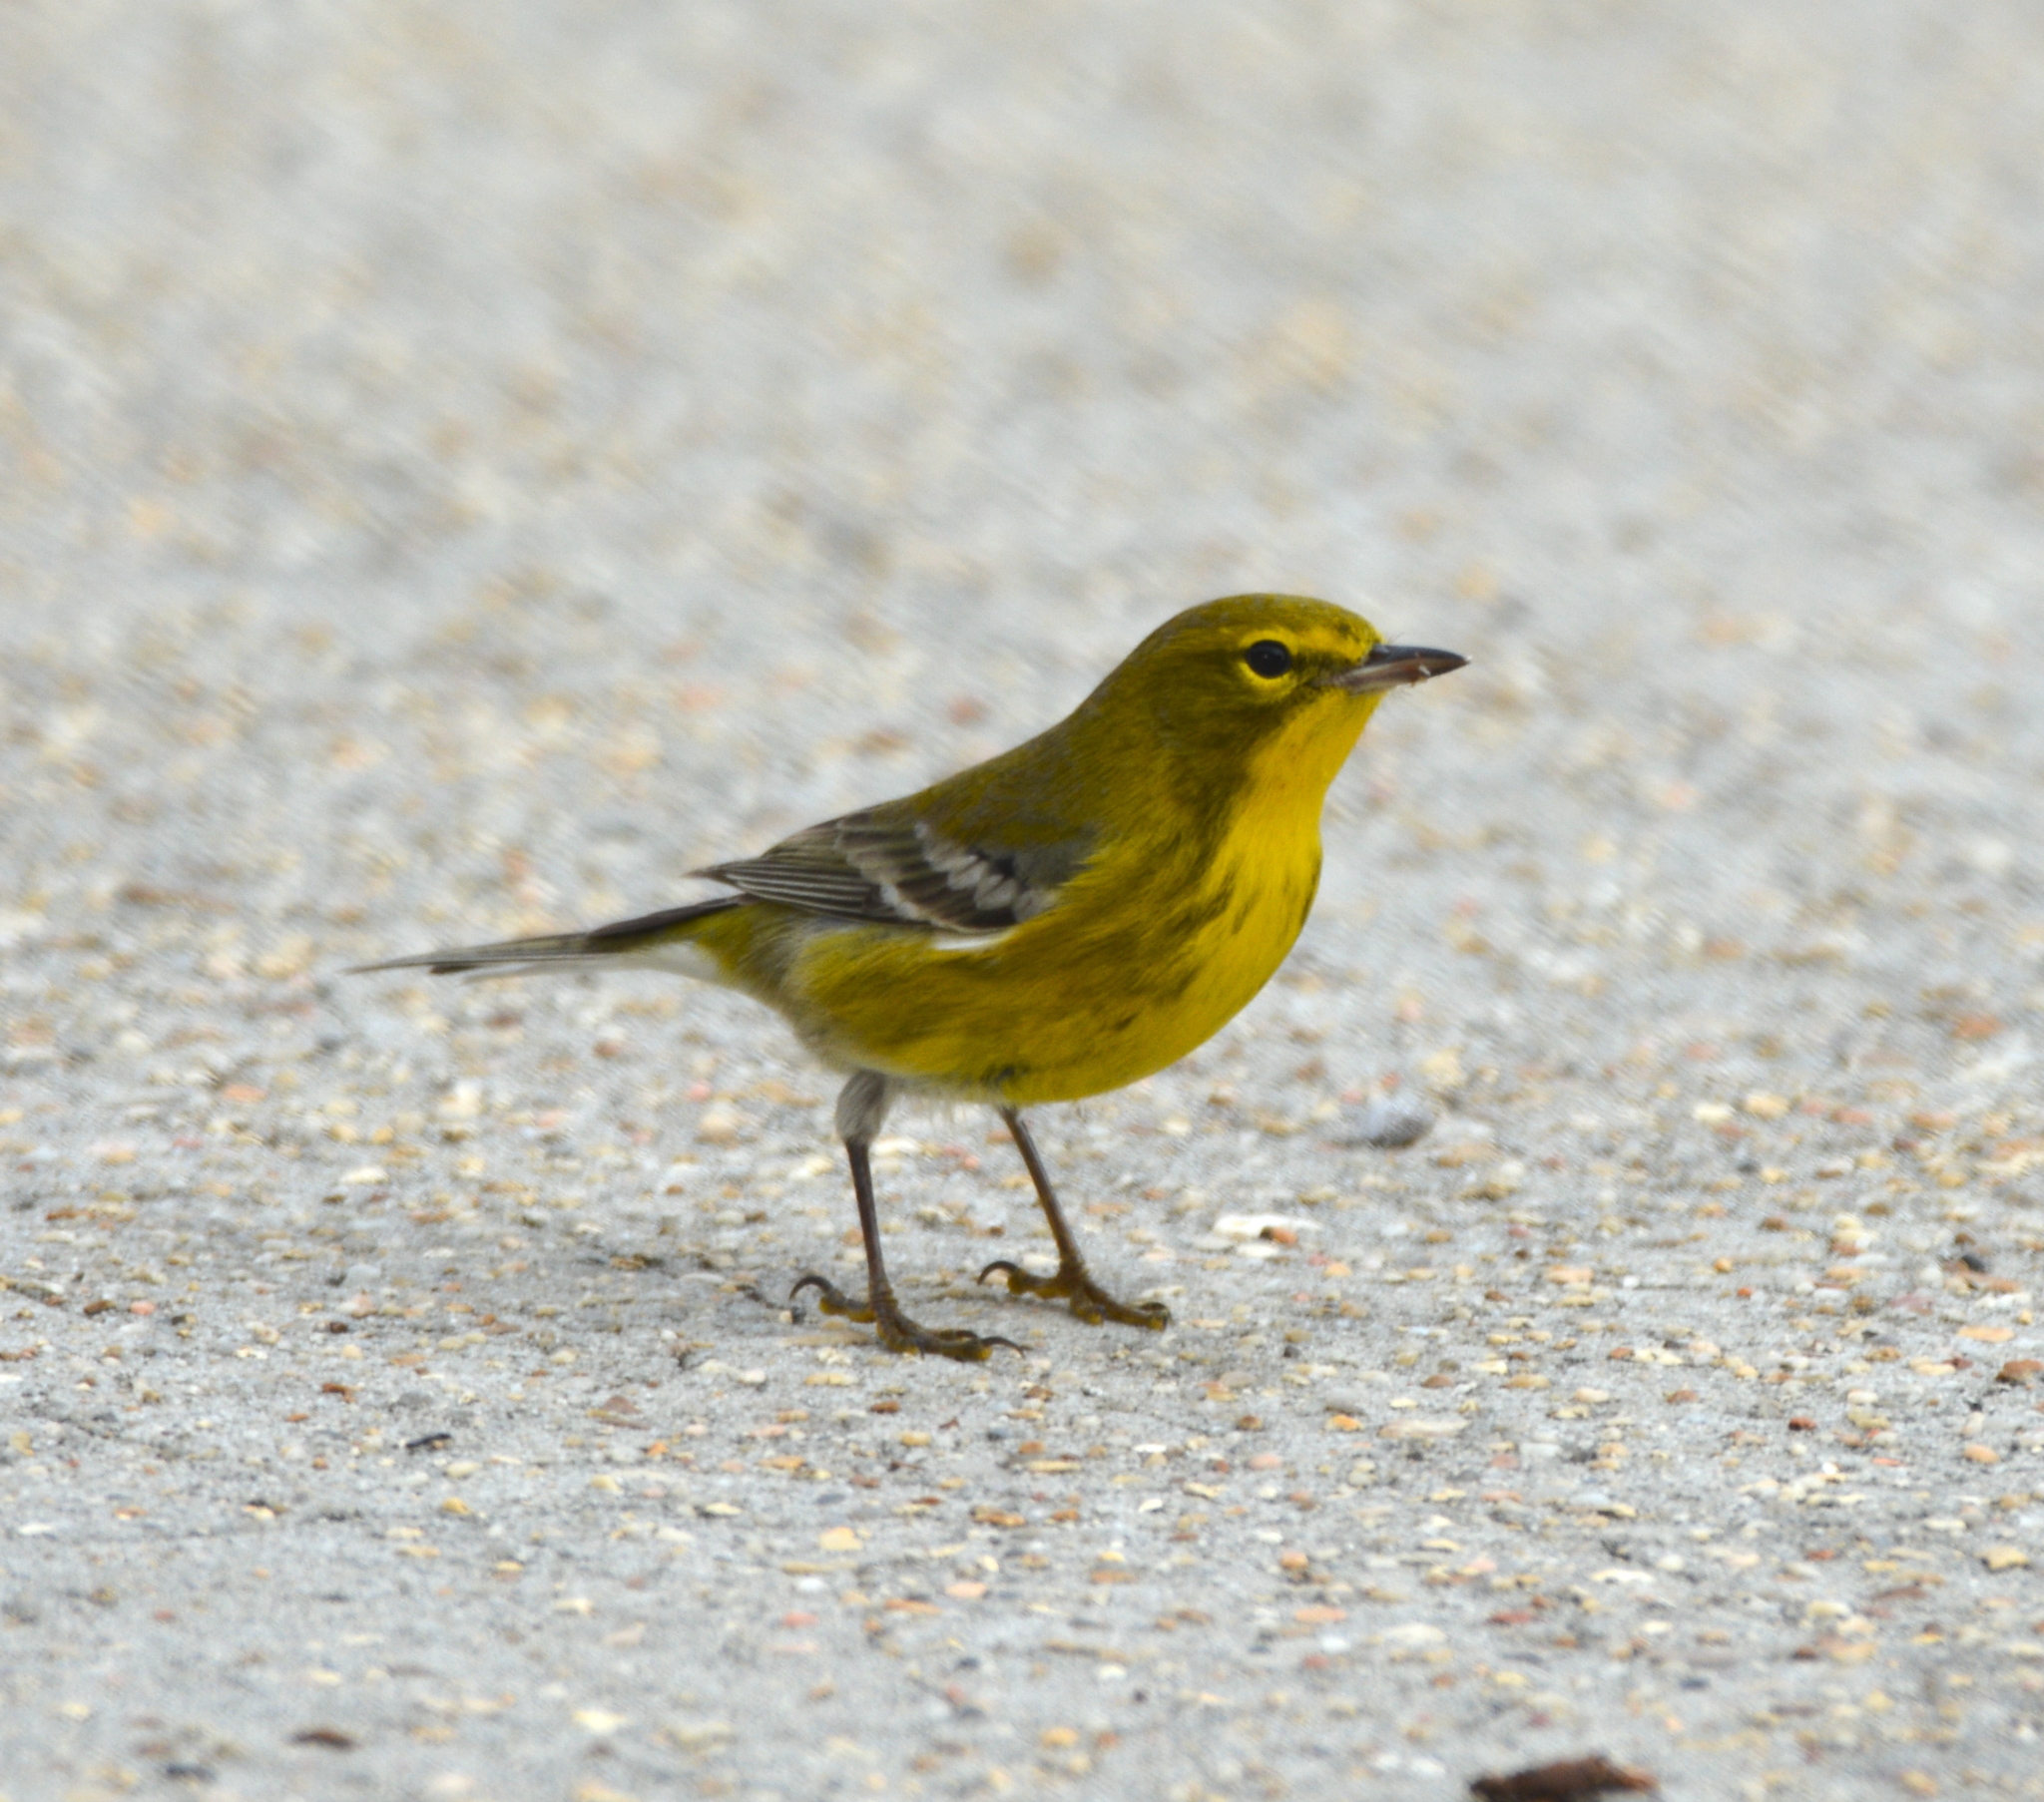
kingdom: Animalia
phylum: Chordata
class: Aves
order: Passeriformes
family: Parulidae
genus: Setophaga
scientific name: Setophaga pinus
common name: Pine warbler
